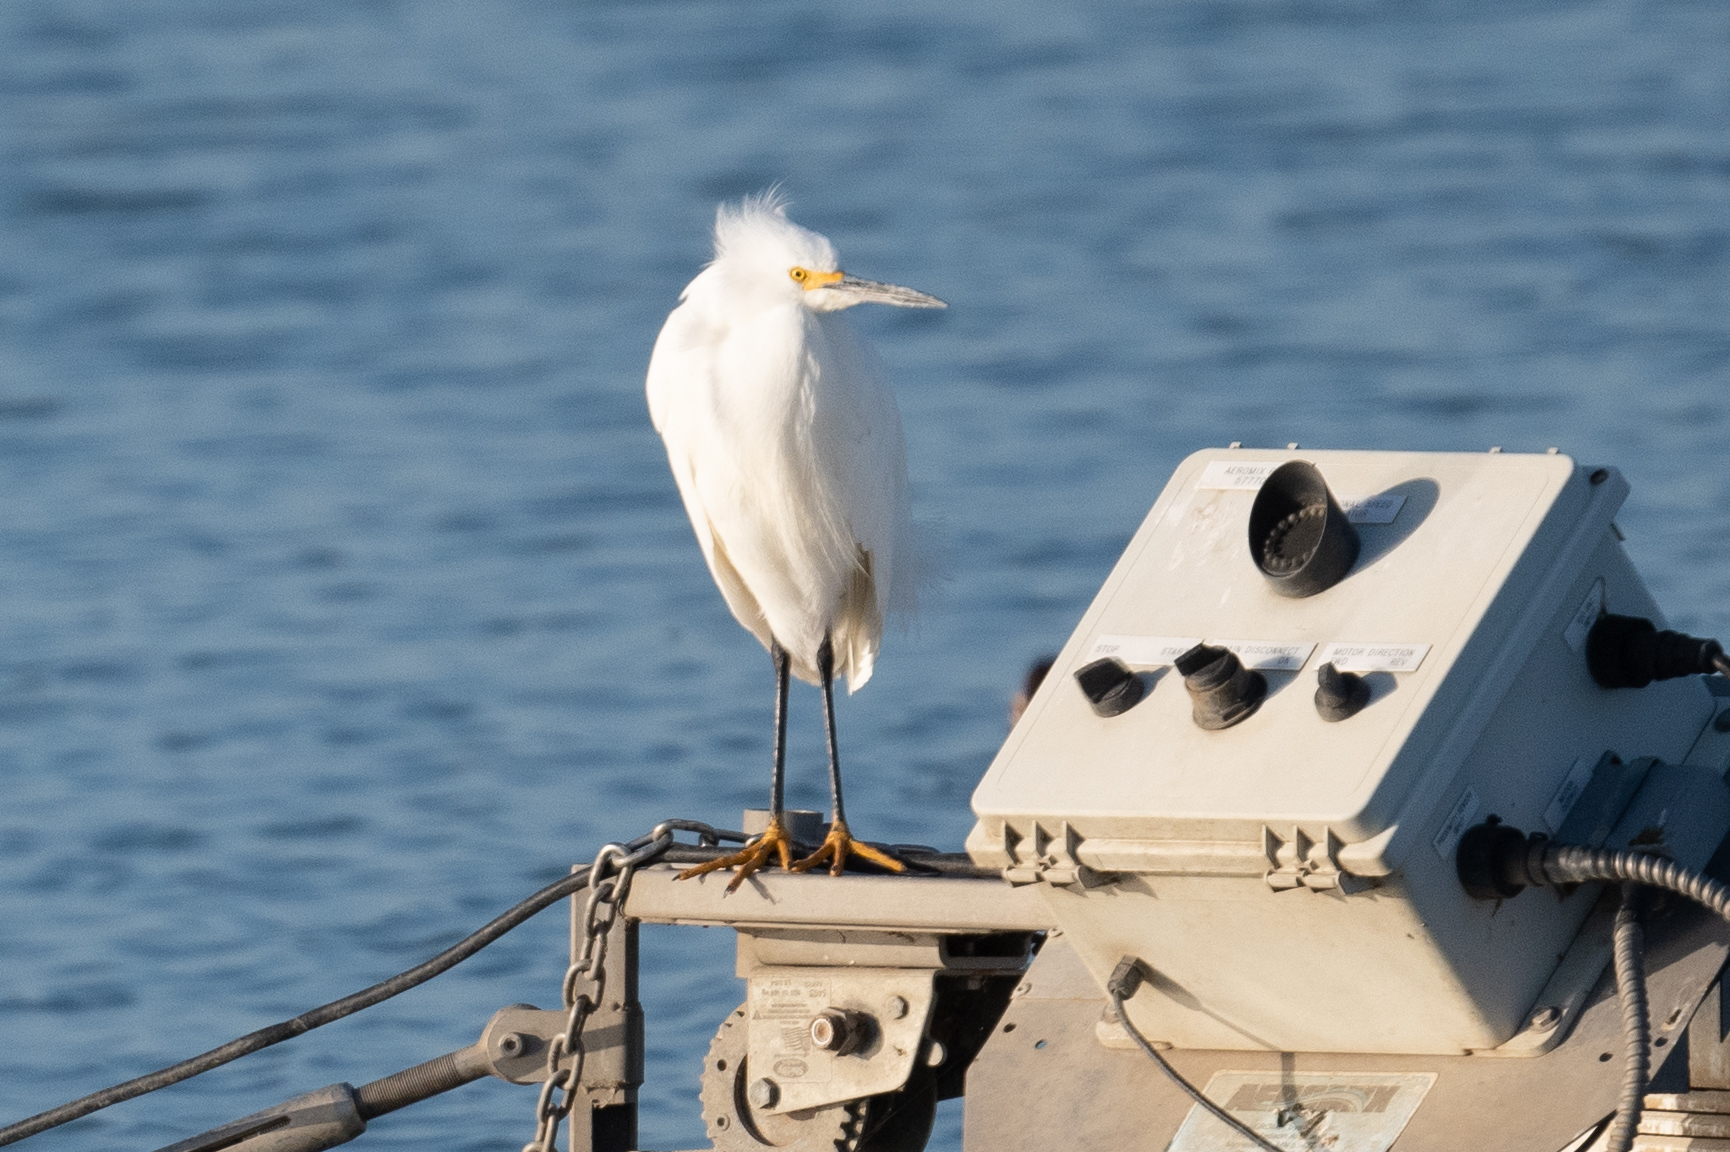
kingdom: Animalia
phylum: Chordata
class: Aves
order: Pelecaniformes
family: Ardeidae
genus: Egretta
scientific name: Egretta thula
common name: Snowy egret
